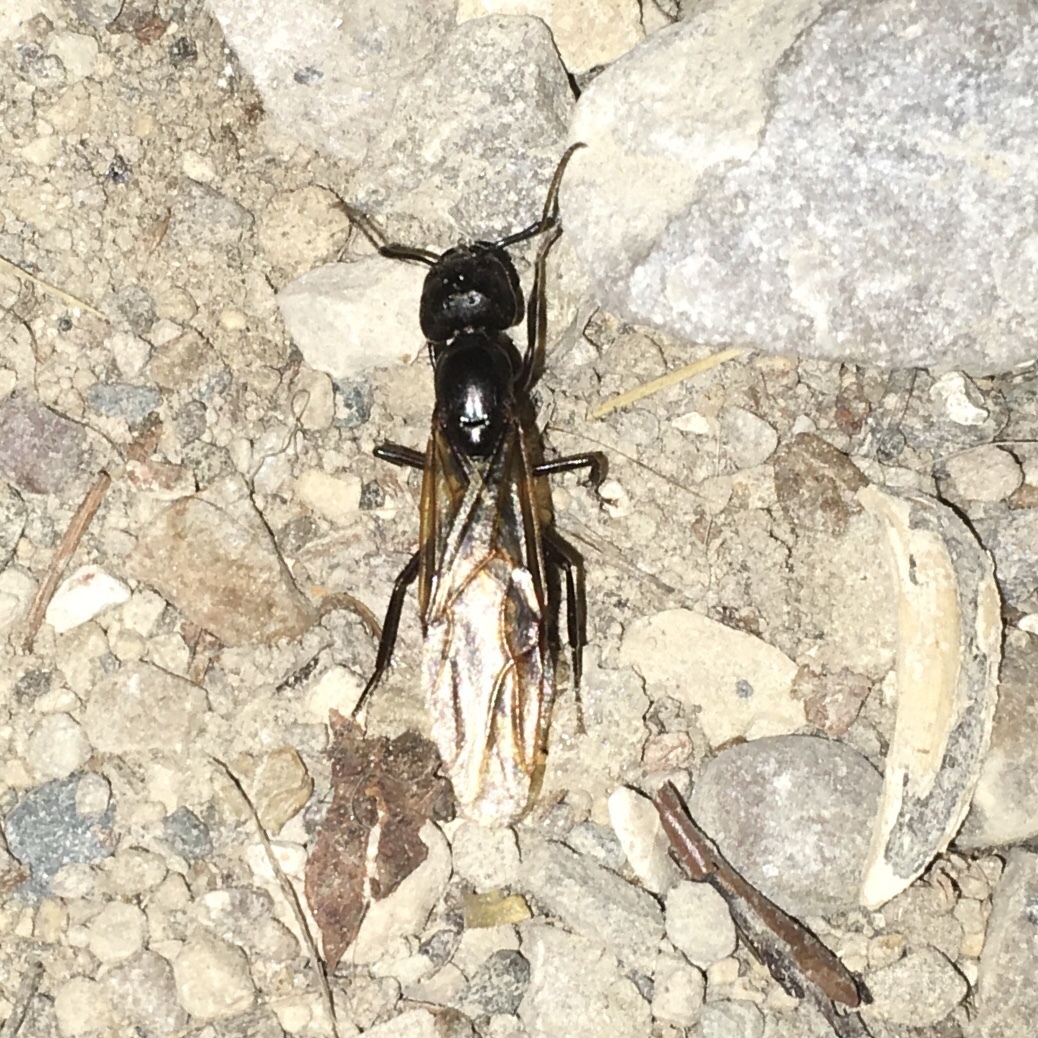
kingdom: Animalia
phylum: Arthropoda
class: Insecta
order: Hymenoptera
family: Formicidae
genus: Camponotus
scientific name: Camponotus pennsylvanicus
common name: Black carpenter ant
